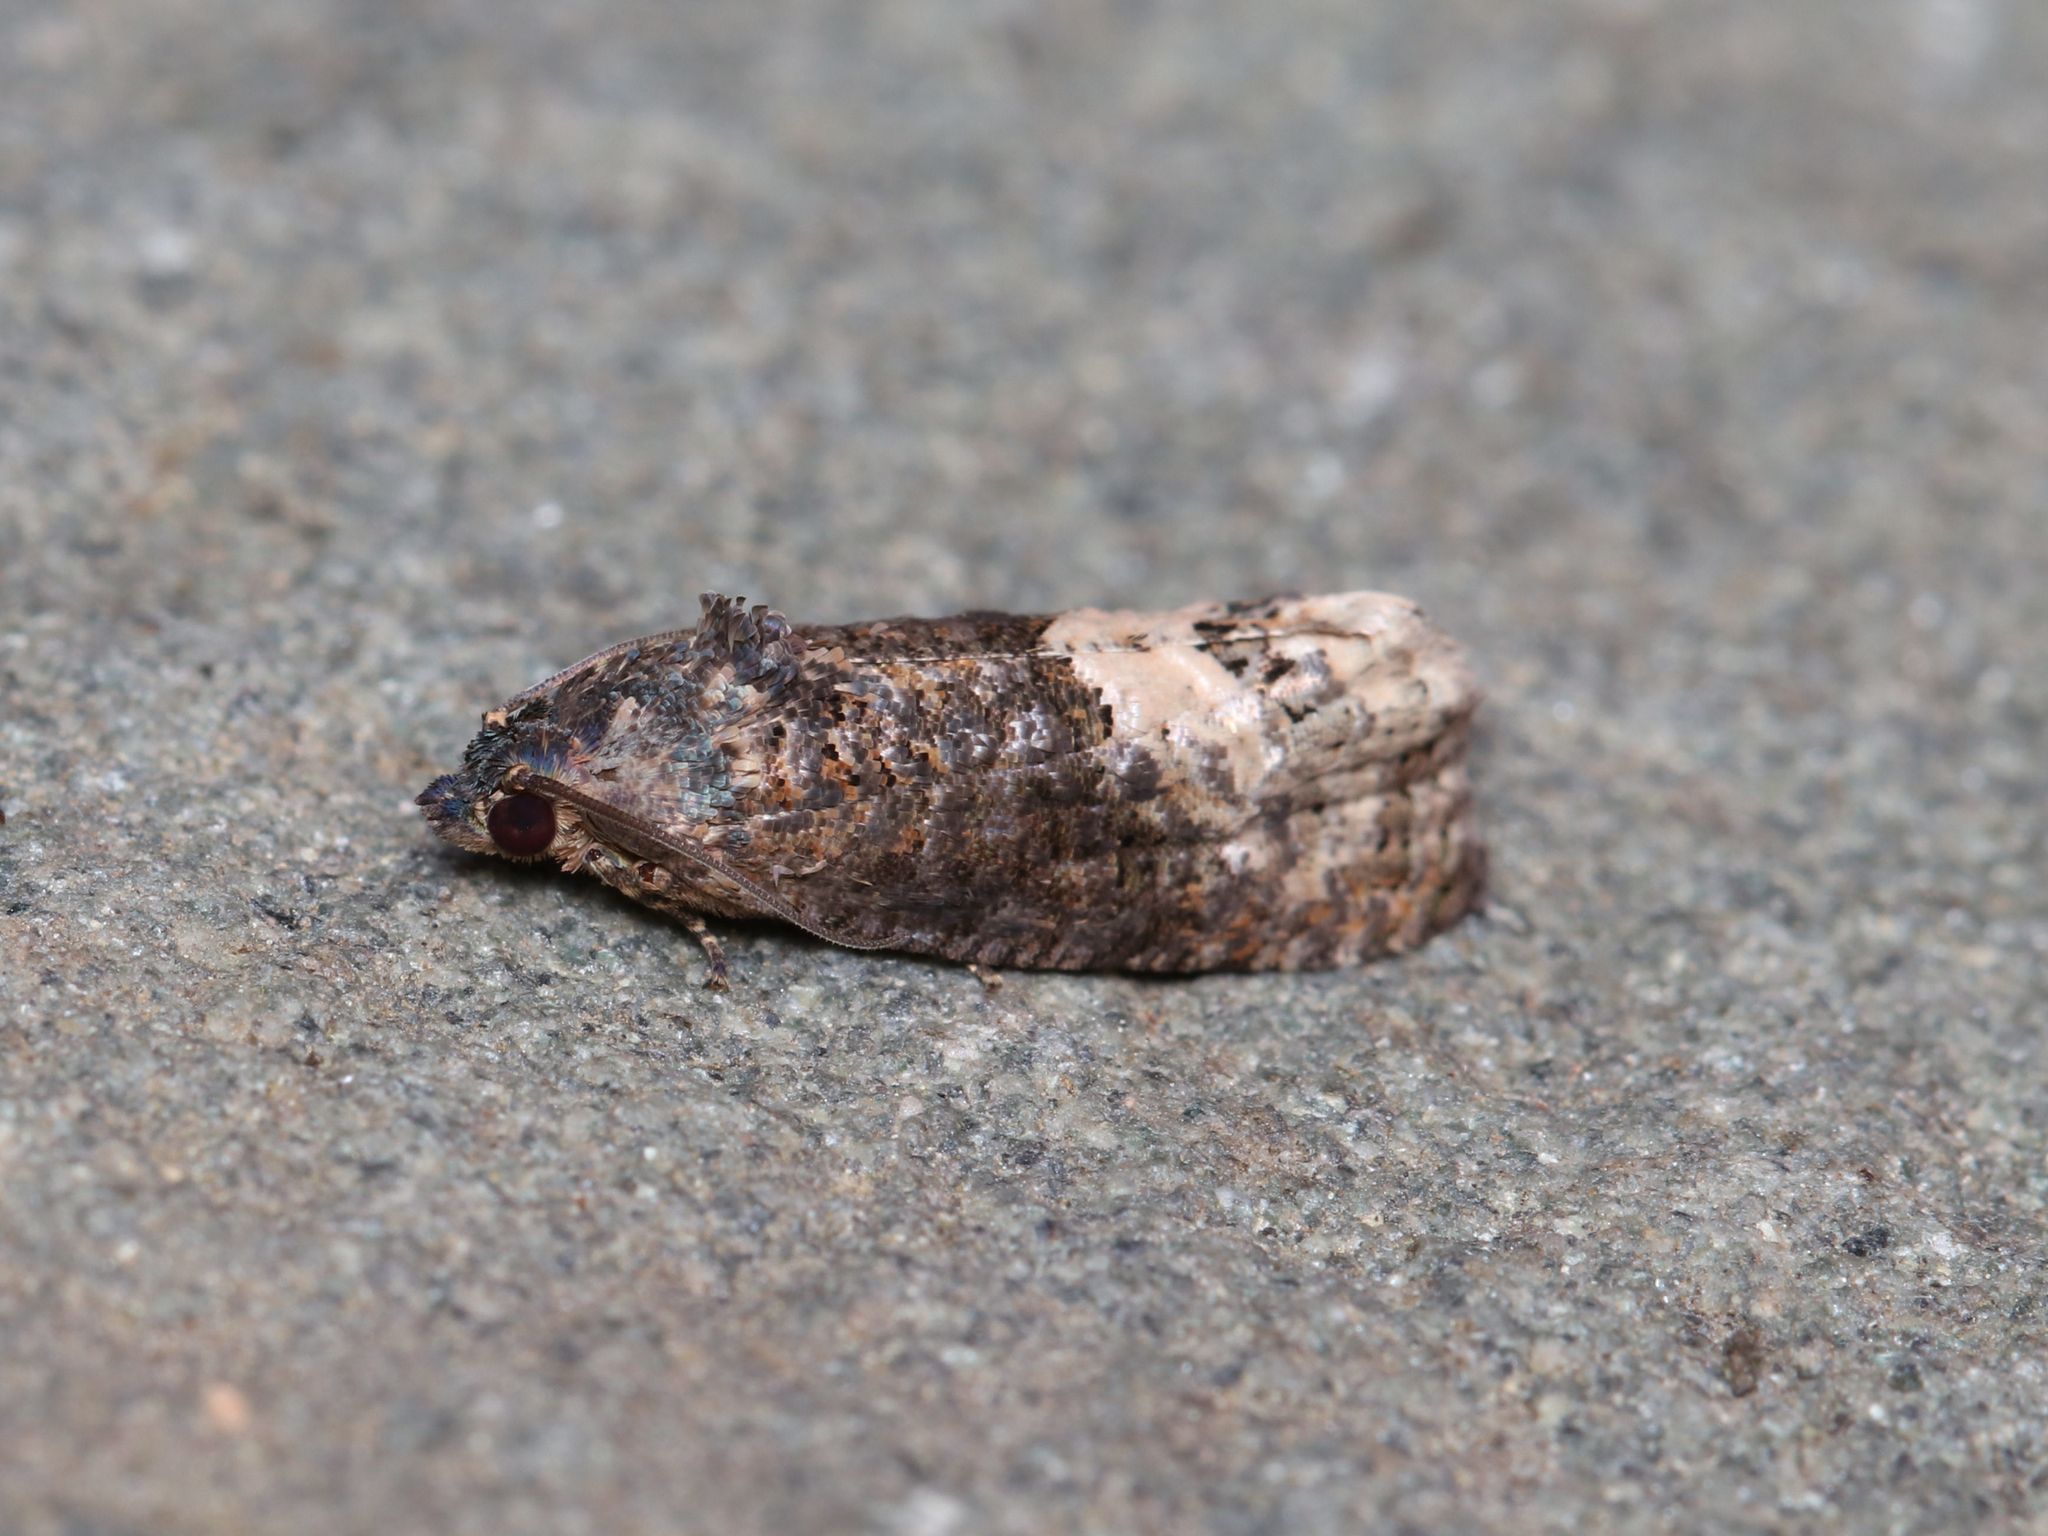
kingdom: Animalia
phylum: Arthropoda
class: Insecta
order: Lepidoptera
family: Tortricidae
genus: Ecdytolopha
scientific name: Ecdytolopha insiticiana
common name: Locust twig borer moth
